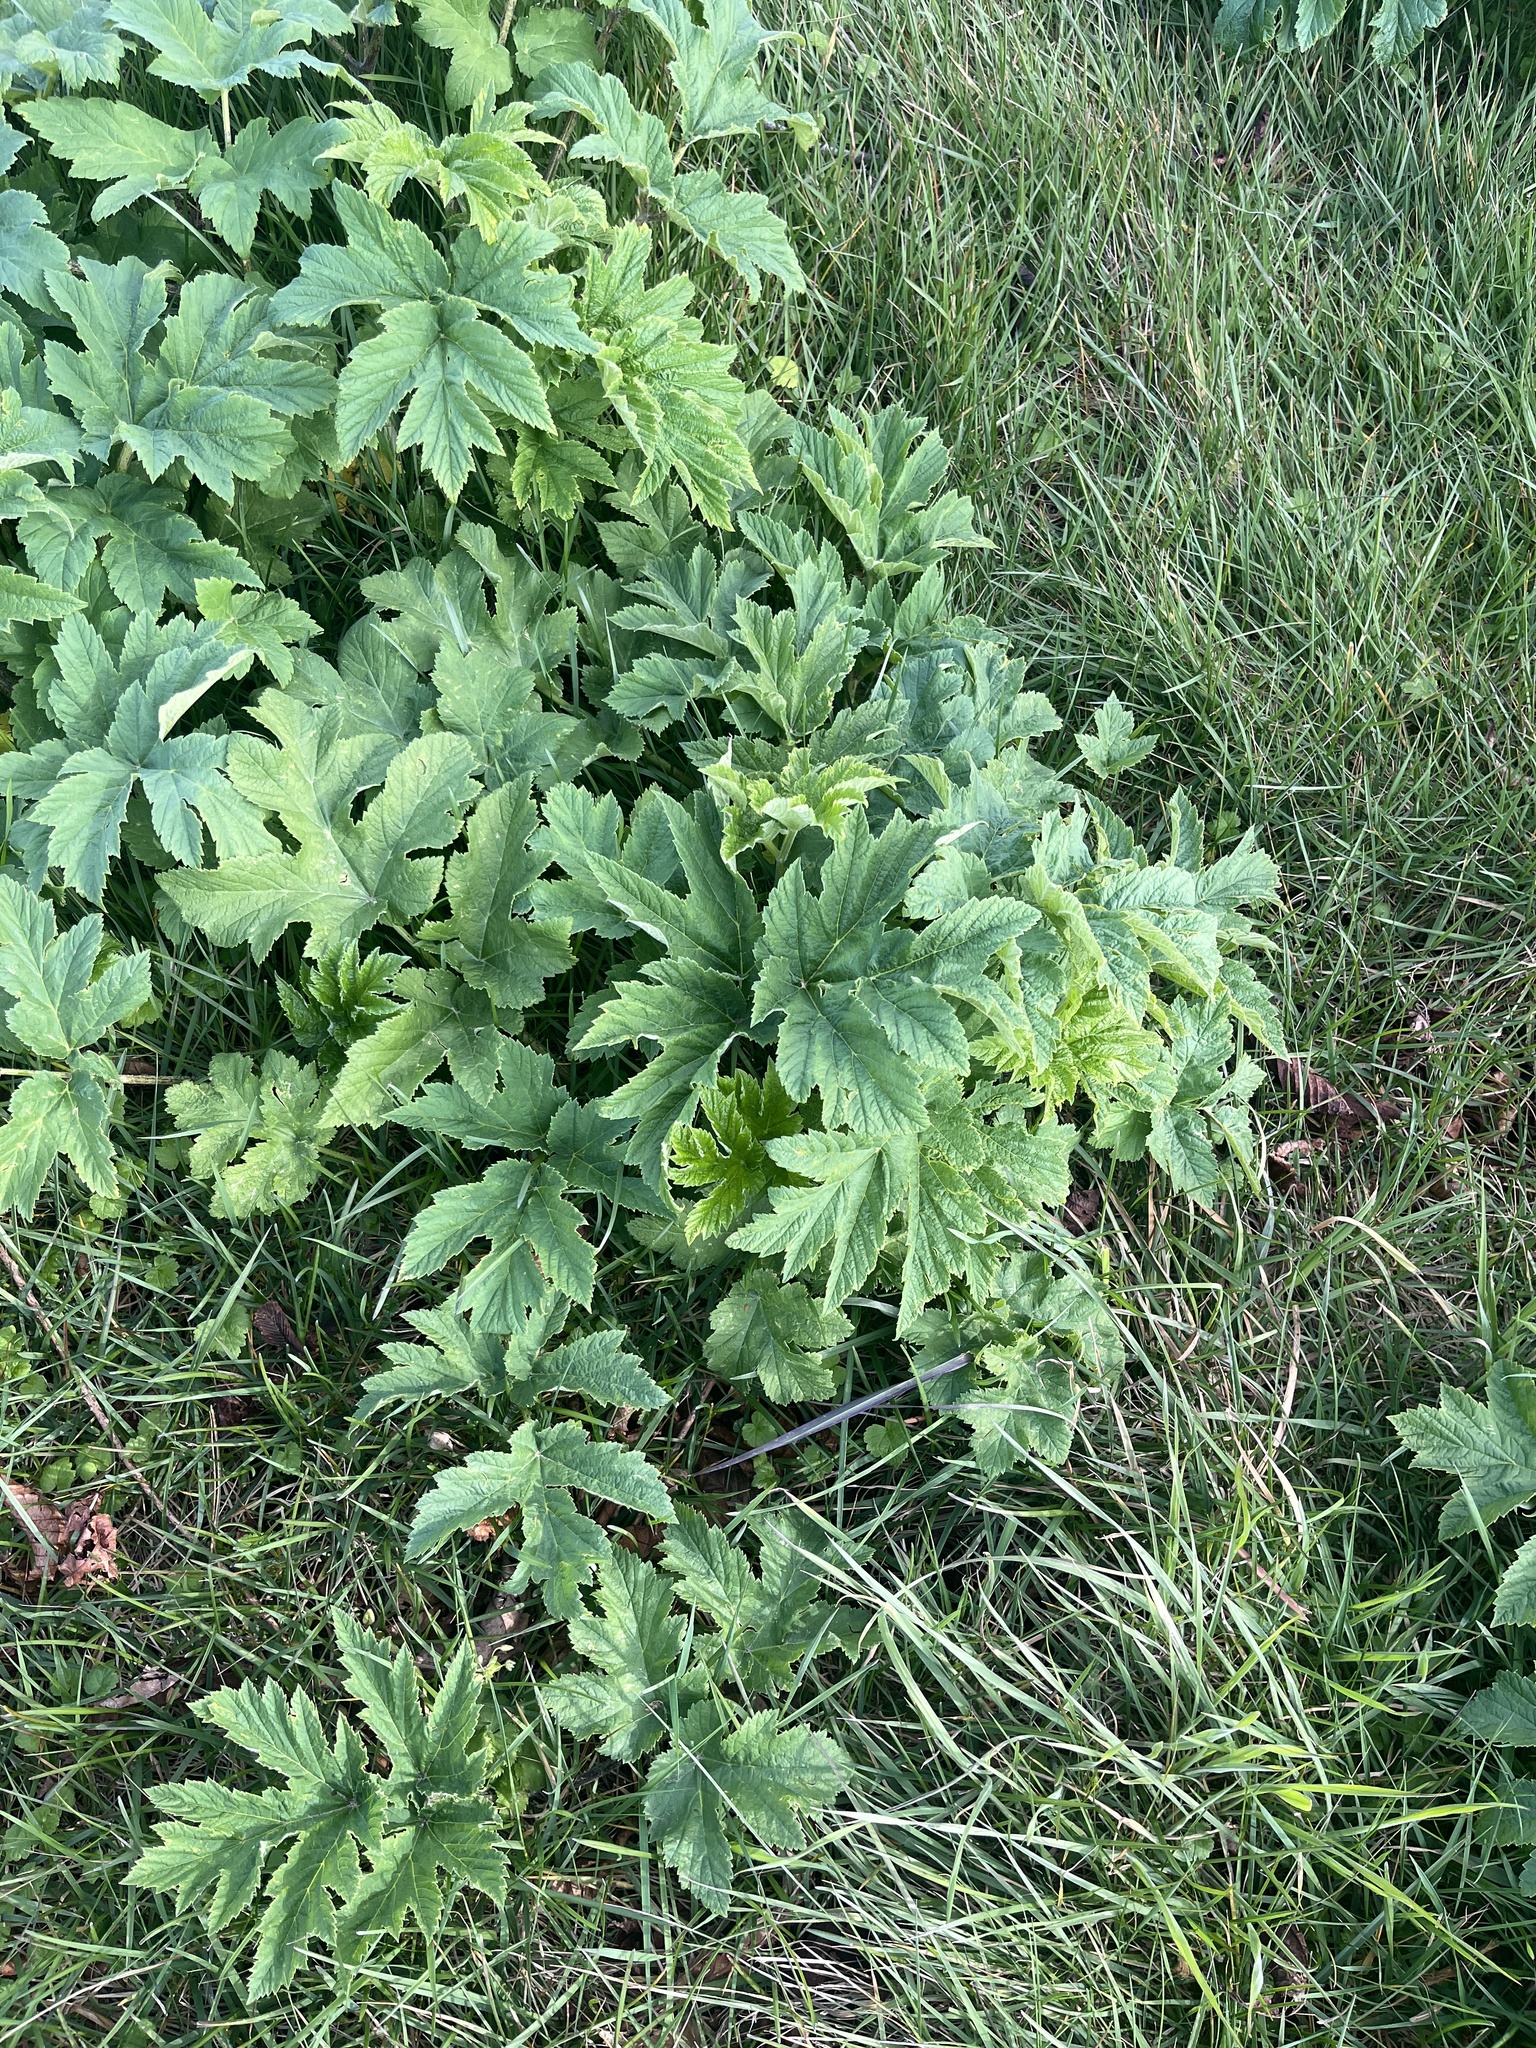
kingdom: Plantae
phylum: Tracheophyta
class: Magnoliopsida
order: Apiales
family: Apiaceae
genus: Heracleum
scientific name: Heracleum maximum
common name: American cow parsnip
